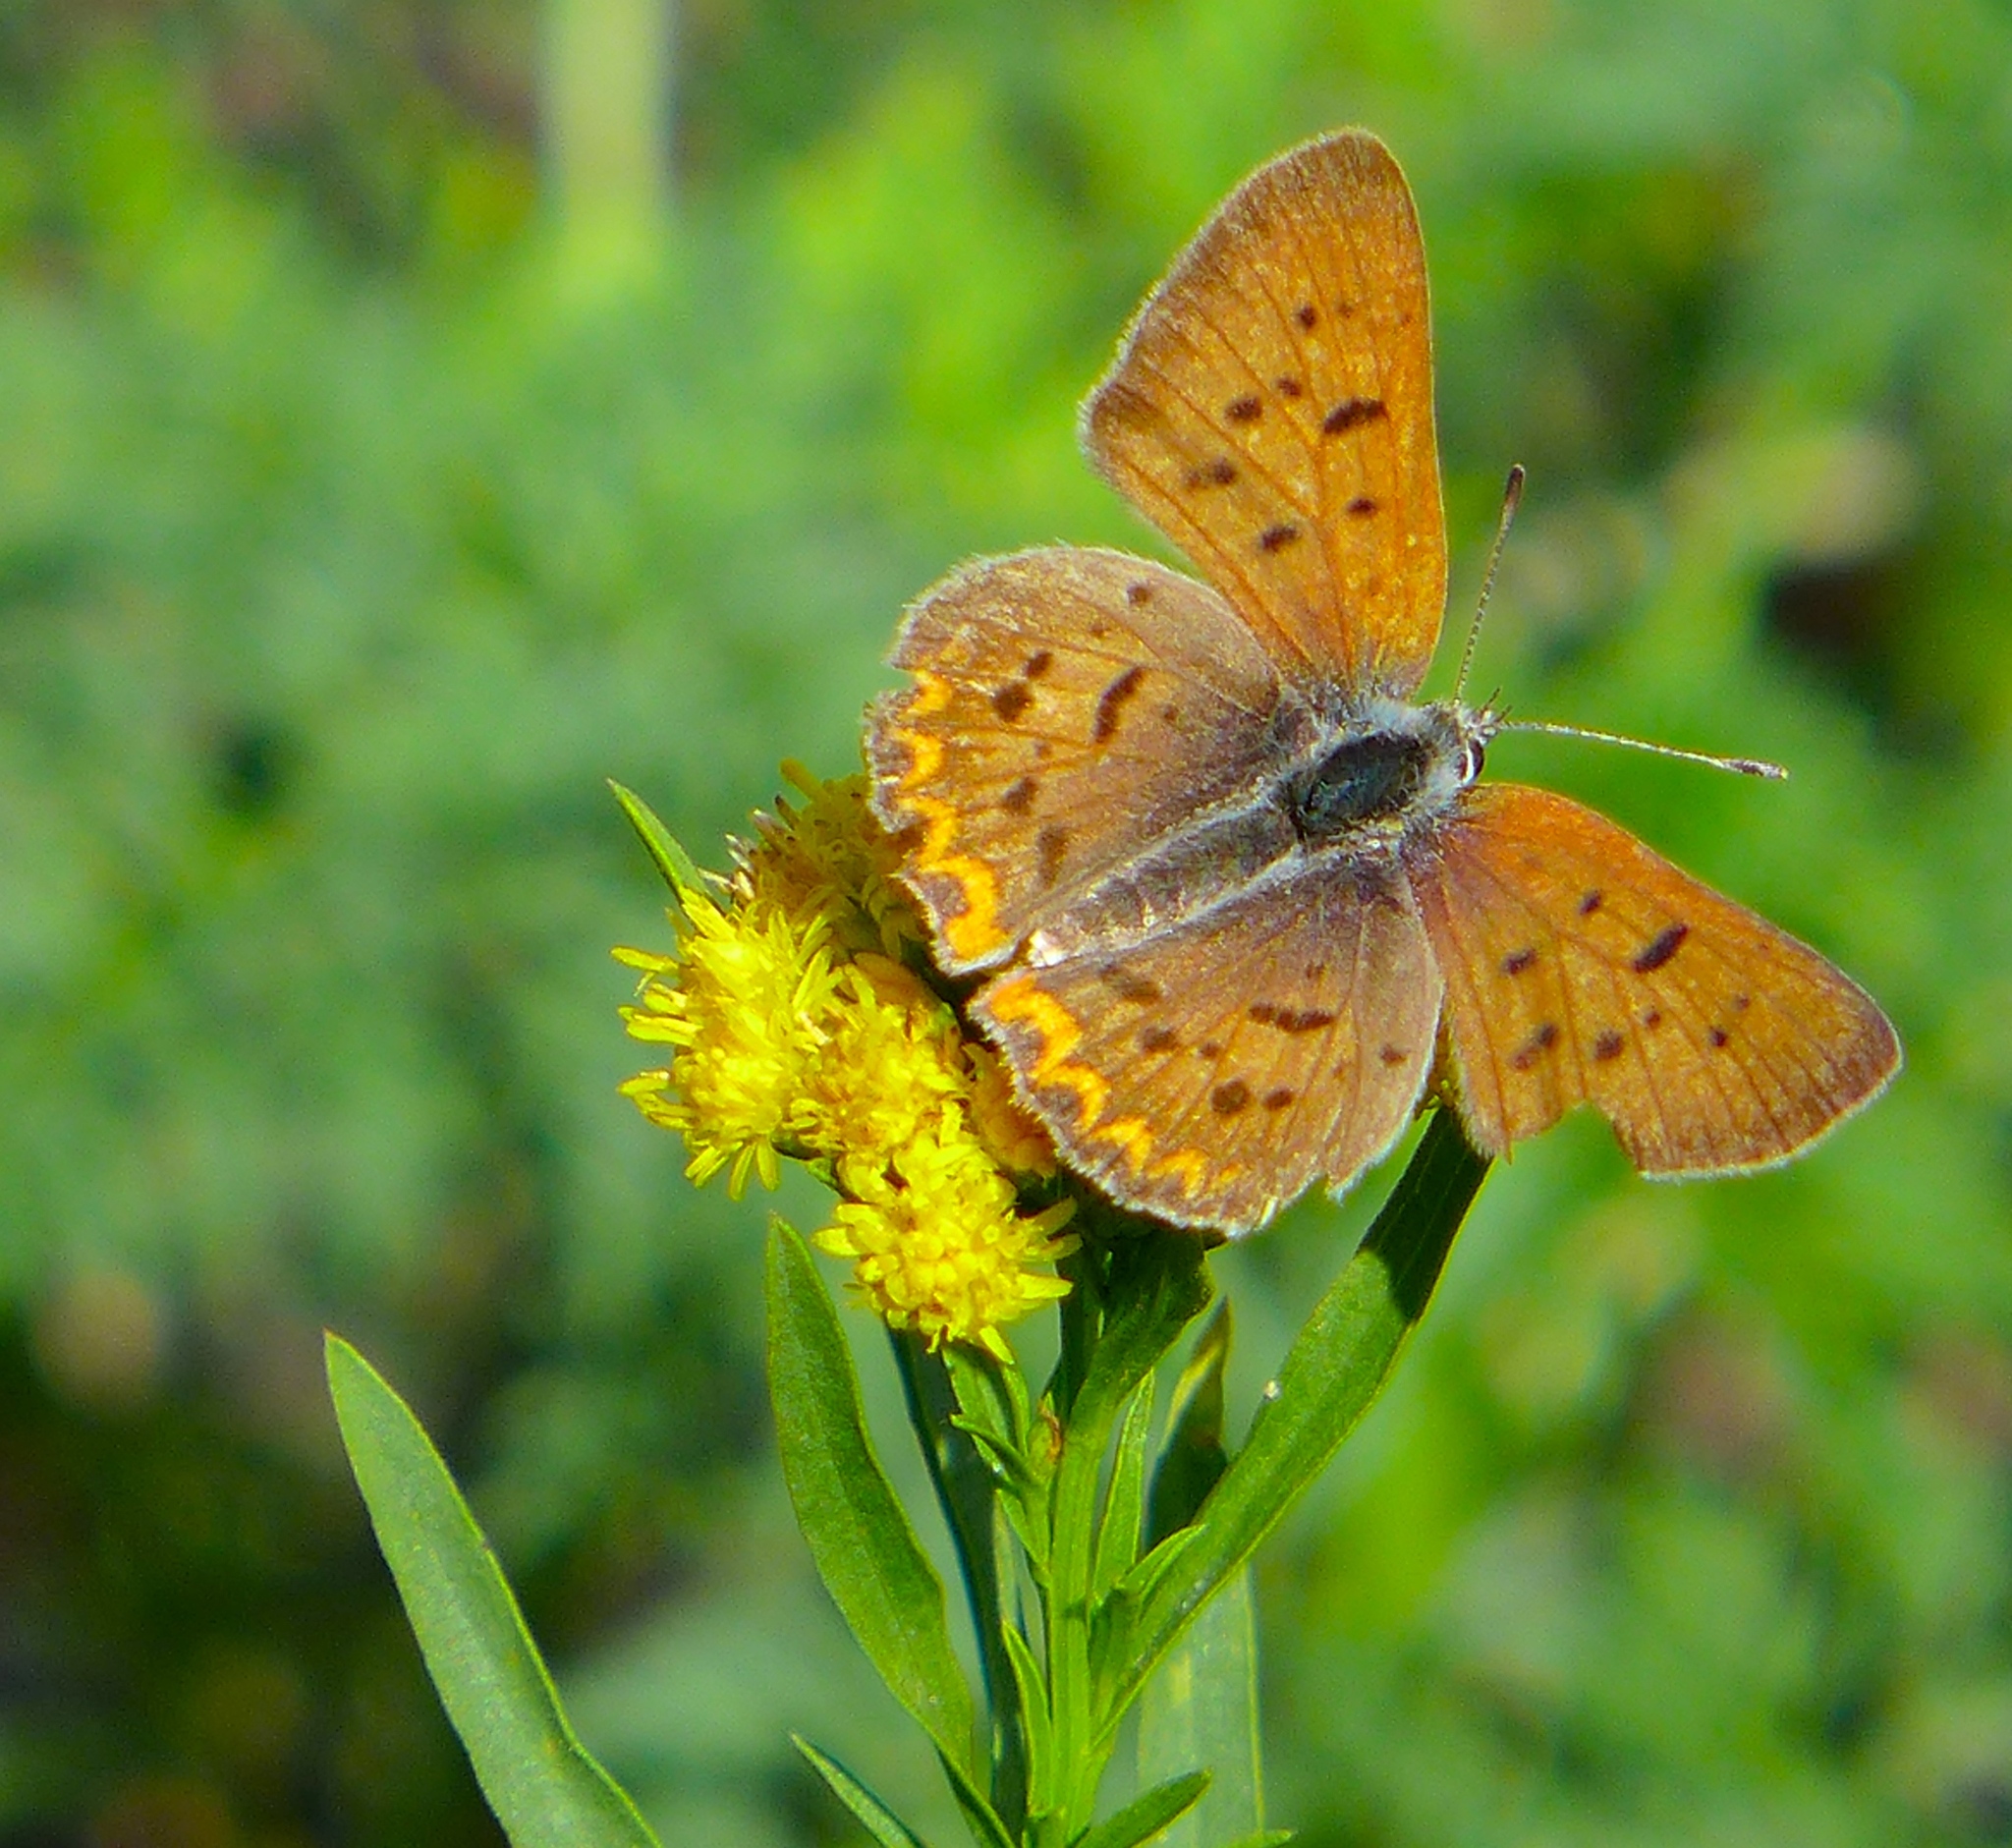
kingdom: Animalia
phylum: Arthropoda
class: Insecta
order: Lepidoptera
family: Lycaenidae
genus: Tharsalea
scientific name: Tharsalea helloides
